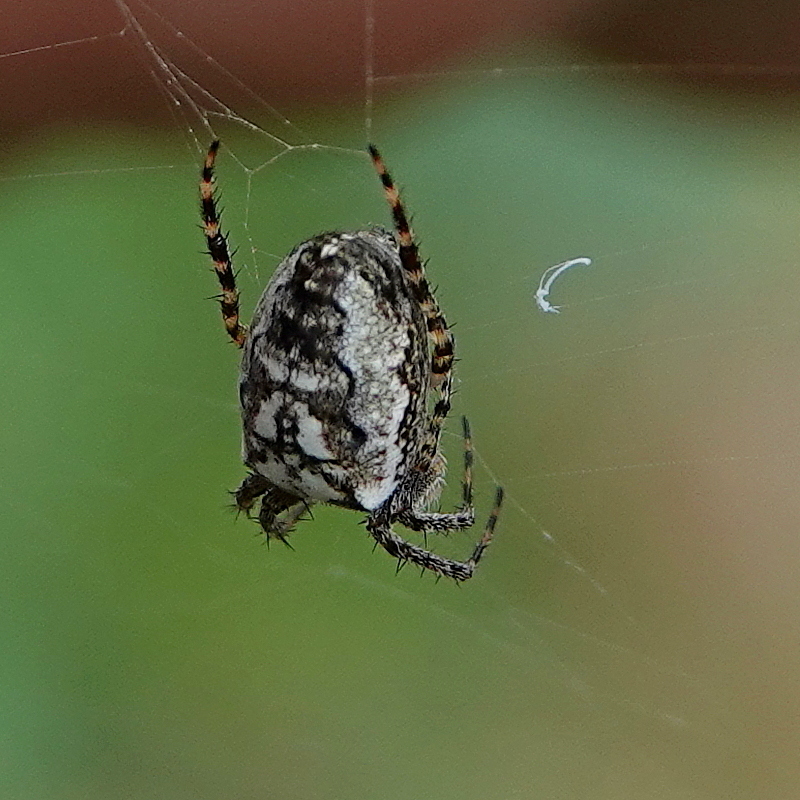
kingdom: Animalia
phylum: Arthropoda
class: Arachnida
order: Araneae
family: Araneidae
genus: Plebs
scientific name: Plebs eburnus
